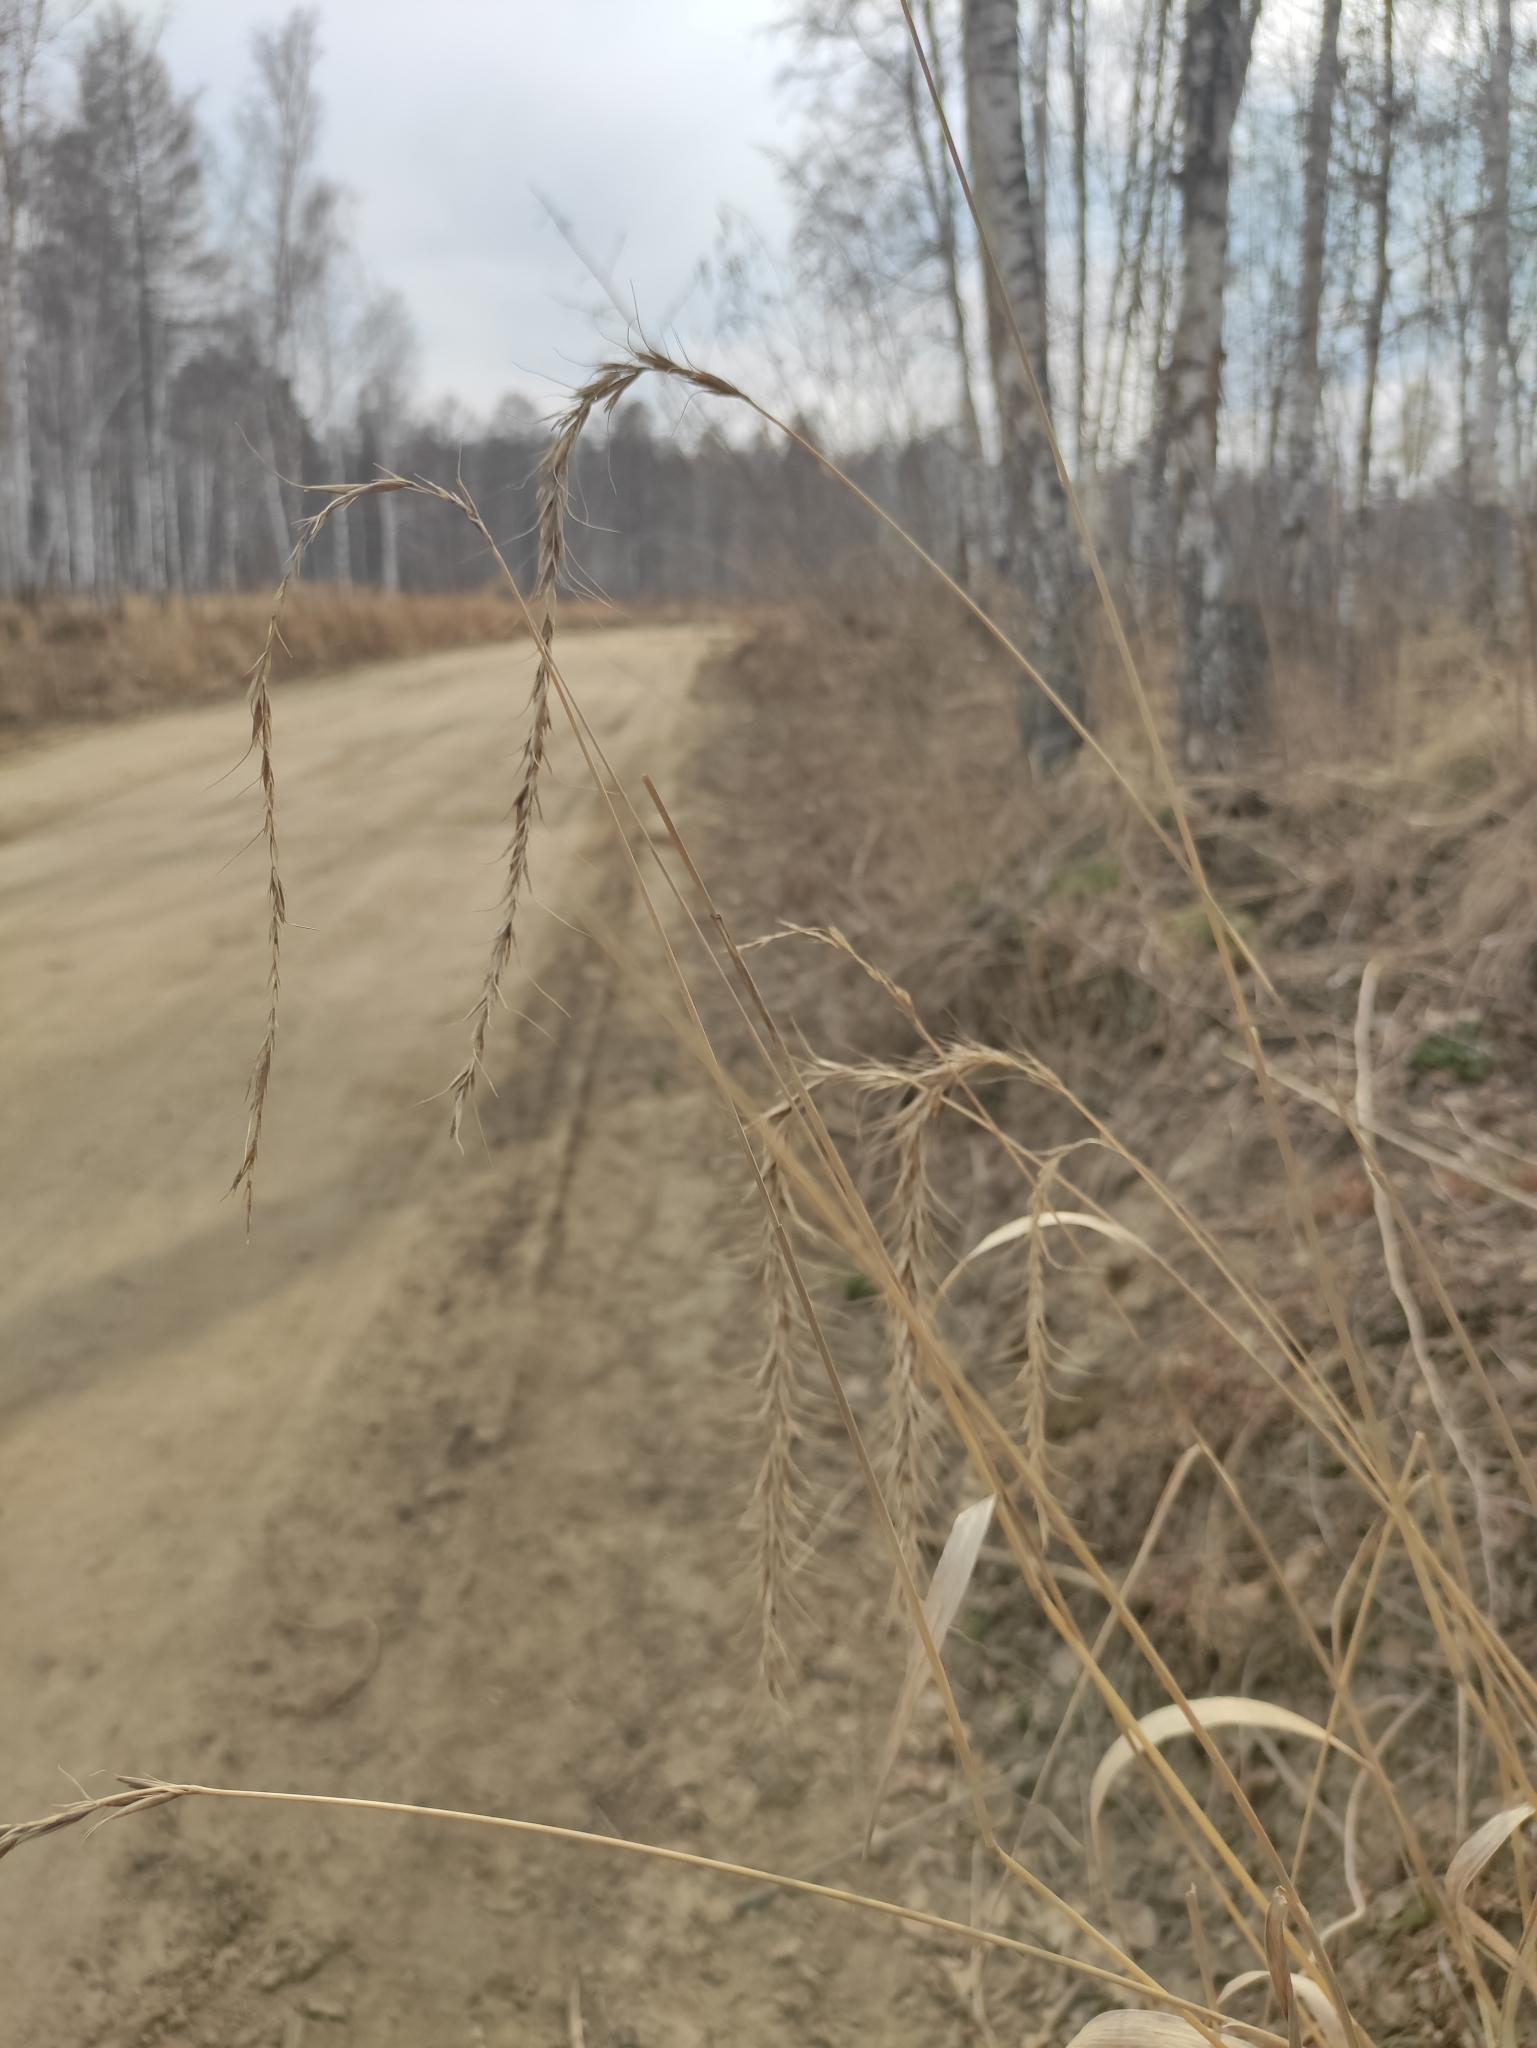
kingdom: Plantae
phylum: Tracheophyta
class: Liliopsida
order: Poales
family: Poaceae
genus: Elymus
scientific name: Elymus sibiricus
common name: Siberian wildrye
